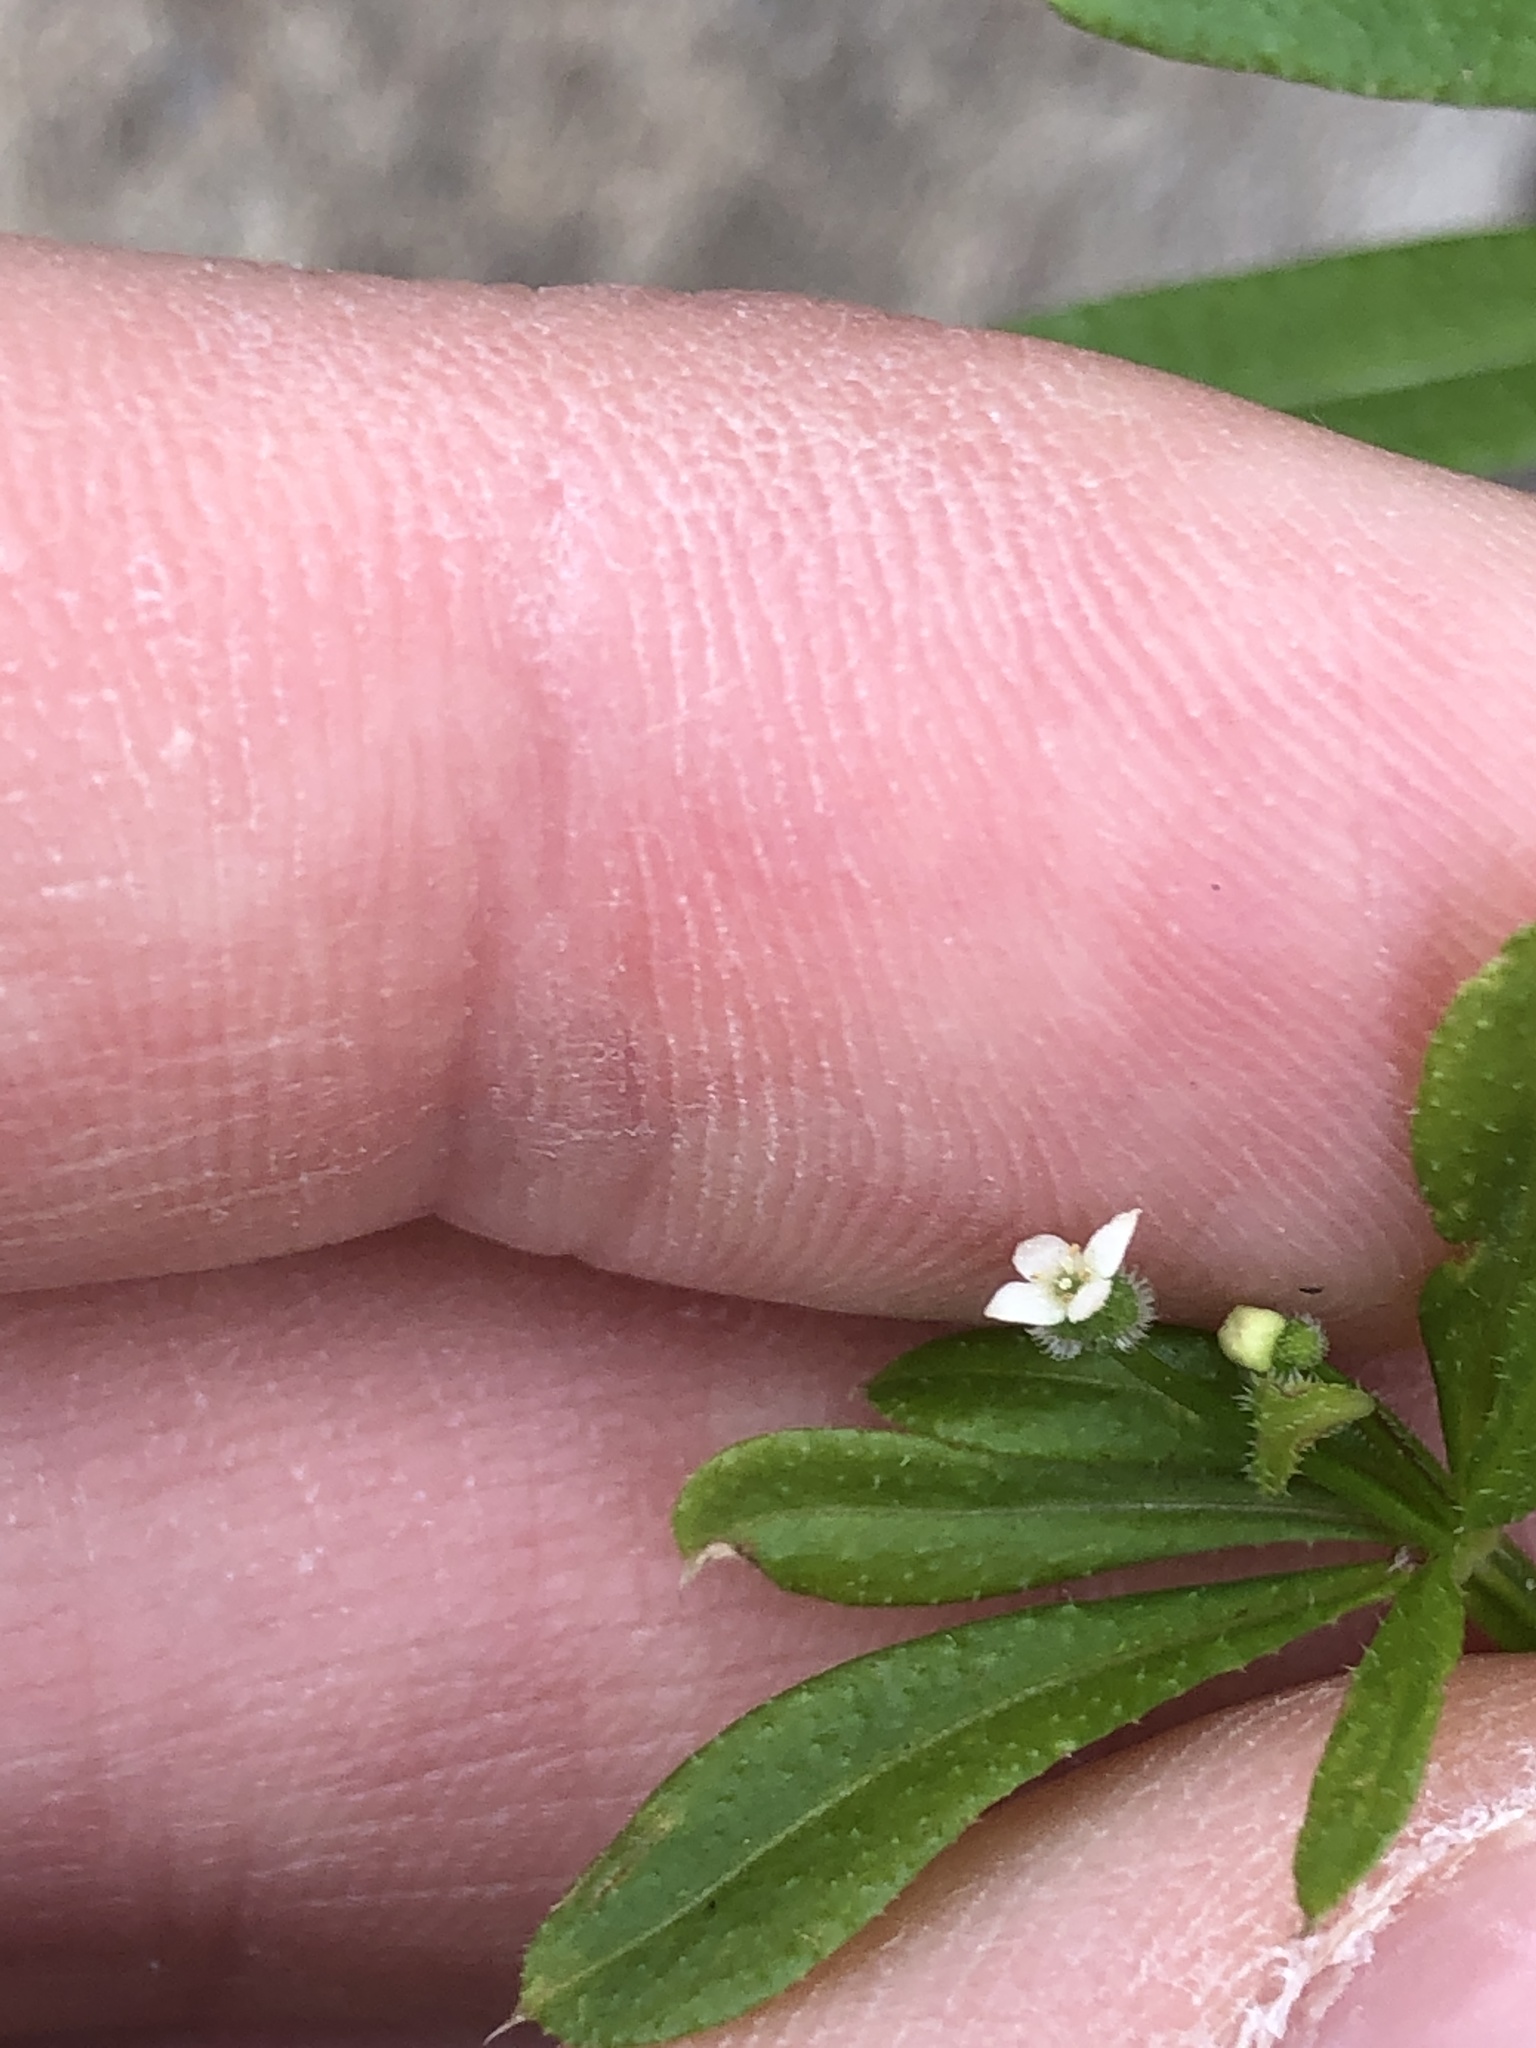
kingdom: Plantae
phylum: Tracheophyta
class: Magnoliopsida
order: Gentianales
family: Rubiaceae
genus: Galium
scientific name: Galium aparine
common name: Cleavers
